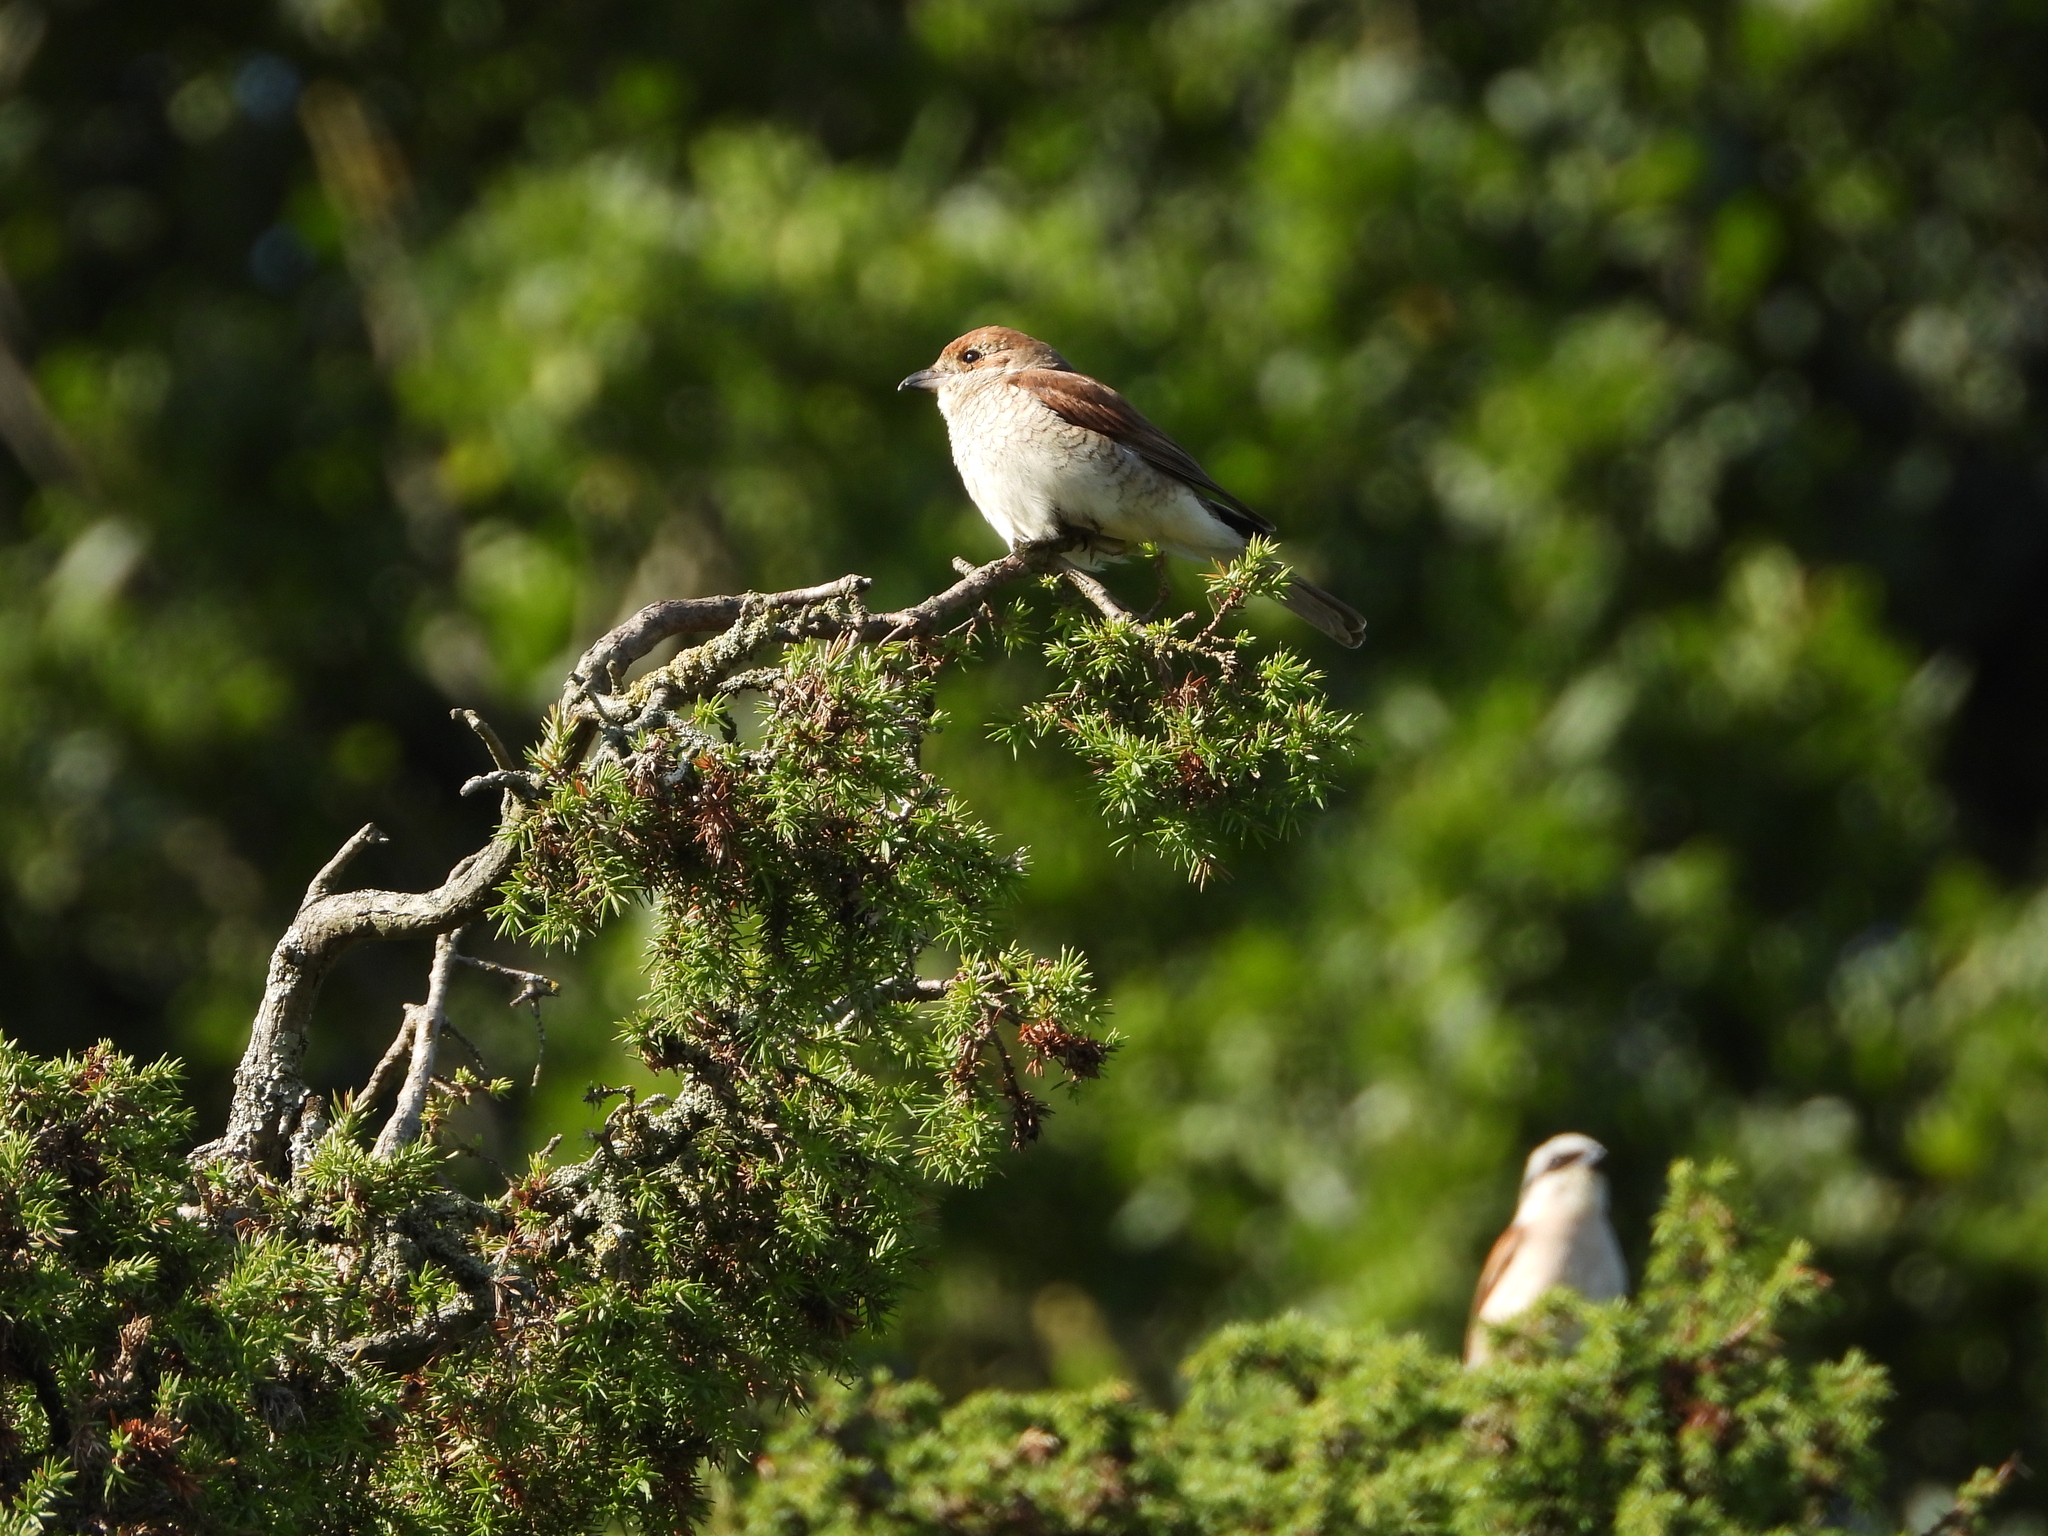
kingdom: Animalia
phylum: Chordata
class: Aves
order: Passeriformes
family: Laniidae
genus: Lanius
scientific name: Lanius collurio
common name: Red-backed shrike
